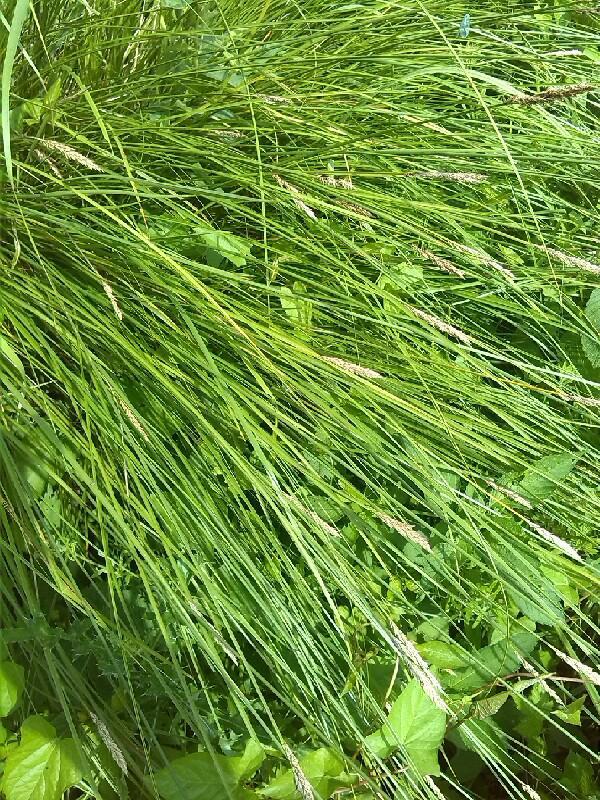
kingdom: Plantae
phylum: Tracheophyta
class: Liliopsida
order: Poales
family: Cyperaceae
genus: Carex
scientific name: Carex fussii
